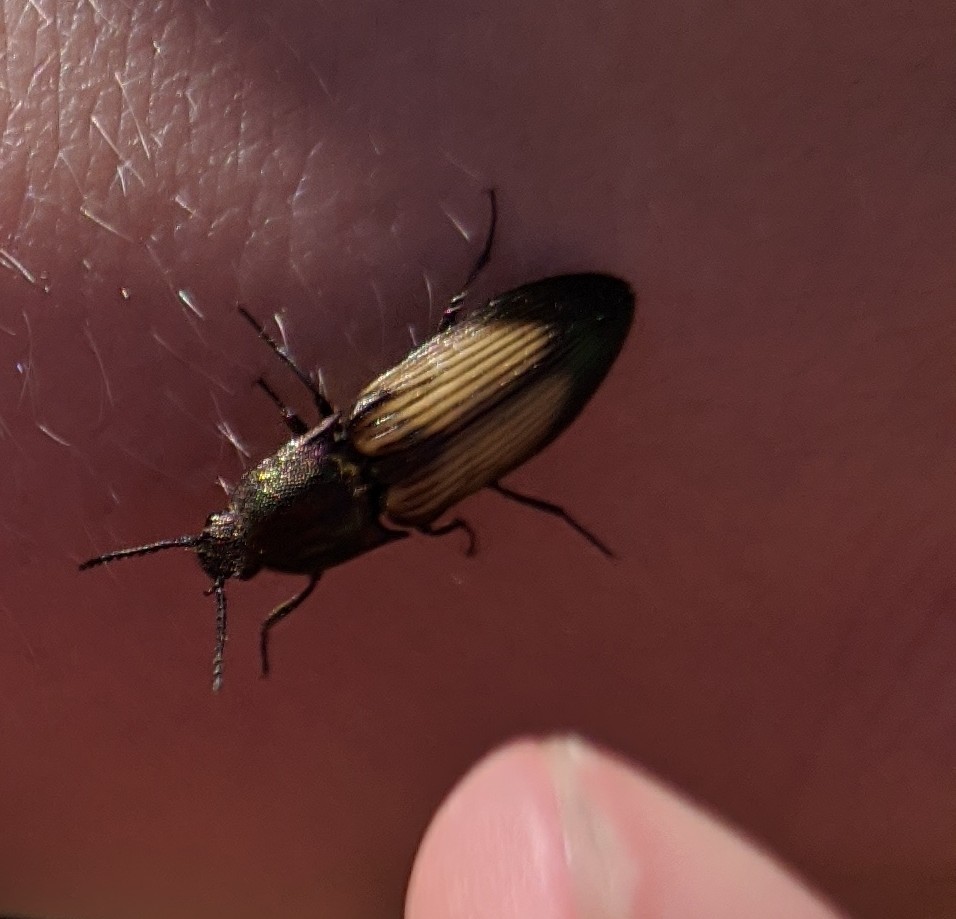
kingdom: Animalia
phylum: Arthropoda
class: Insecta
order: Coleoptera
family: Elateridae
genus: Ctenicera
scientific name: Ctenicera cuprea
